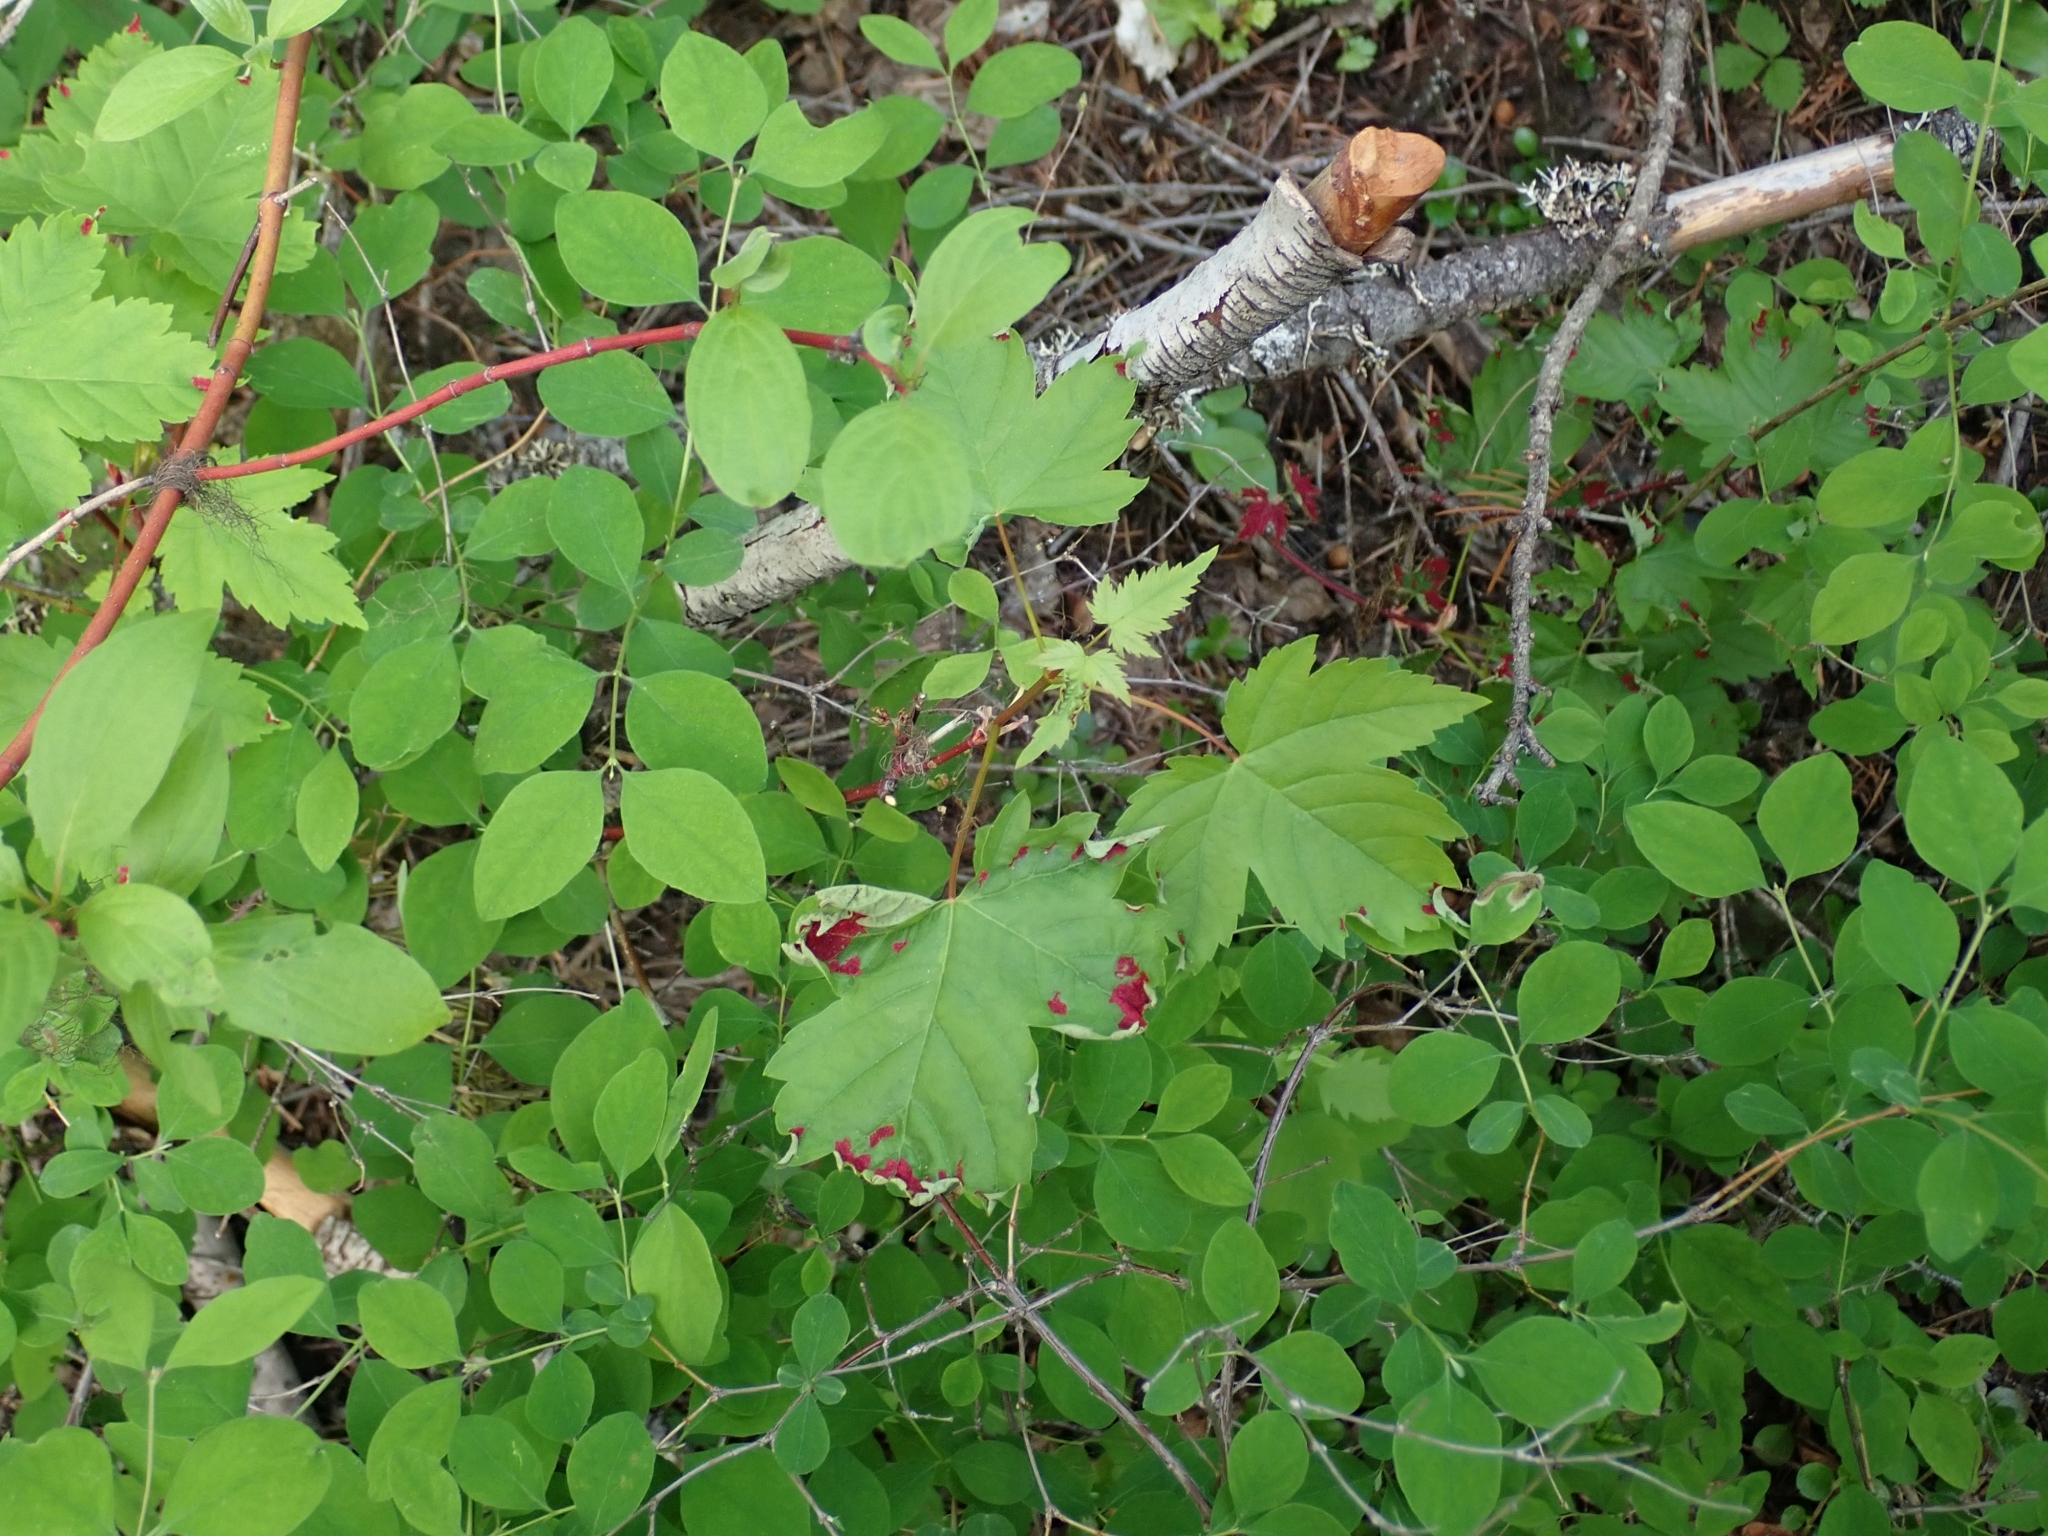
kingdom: Plantae
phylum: Tracheophyta
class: Magnoliopsida
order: Sapindales
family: Sapindaceae
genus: Acer
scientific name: Acer glabrum
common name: Rocky mountain maple
